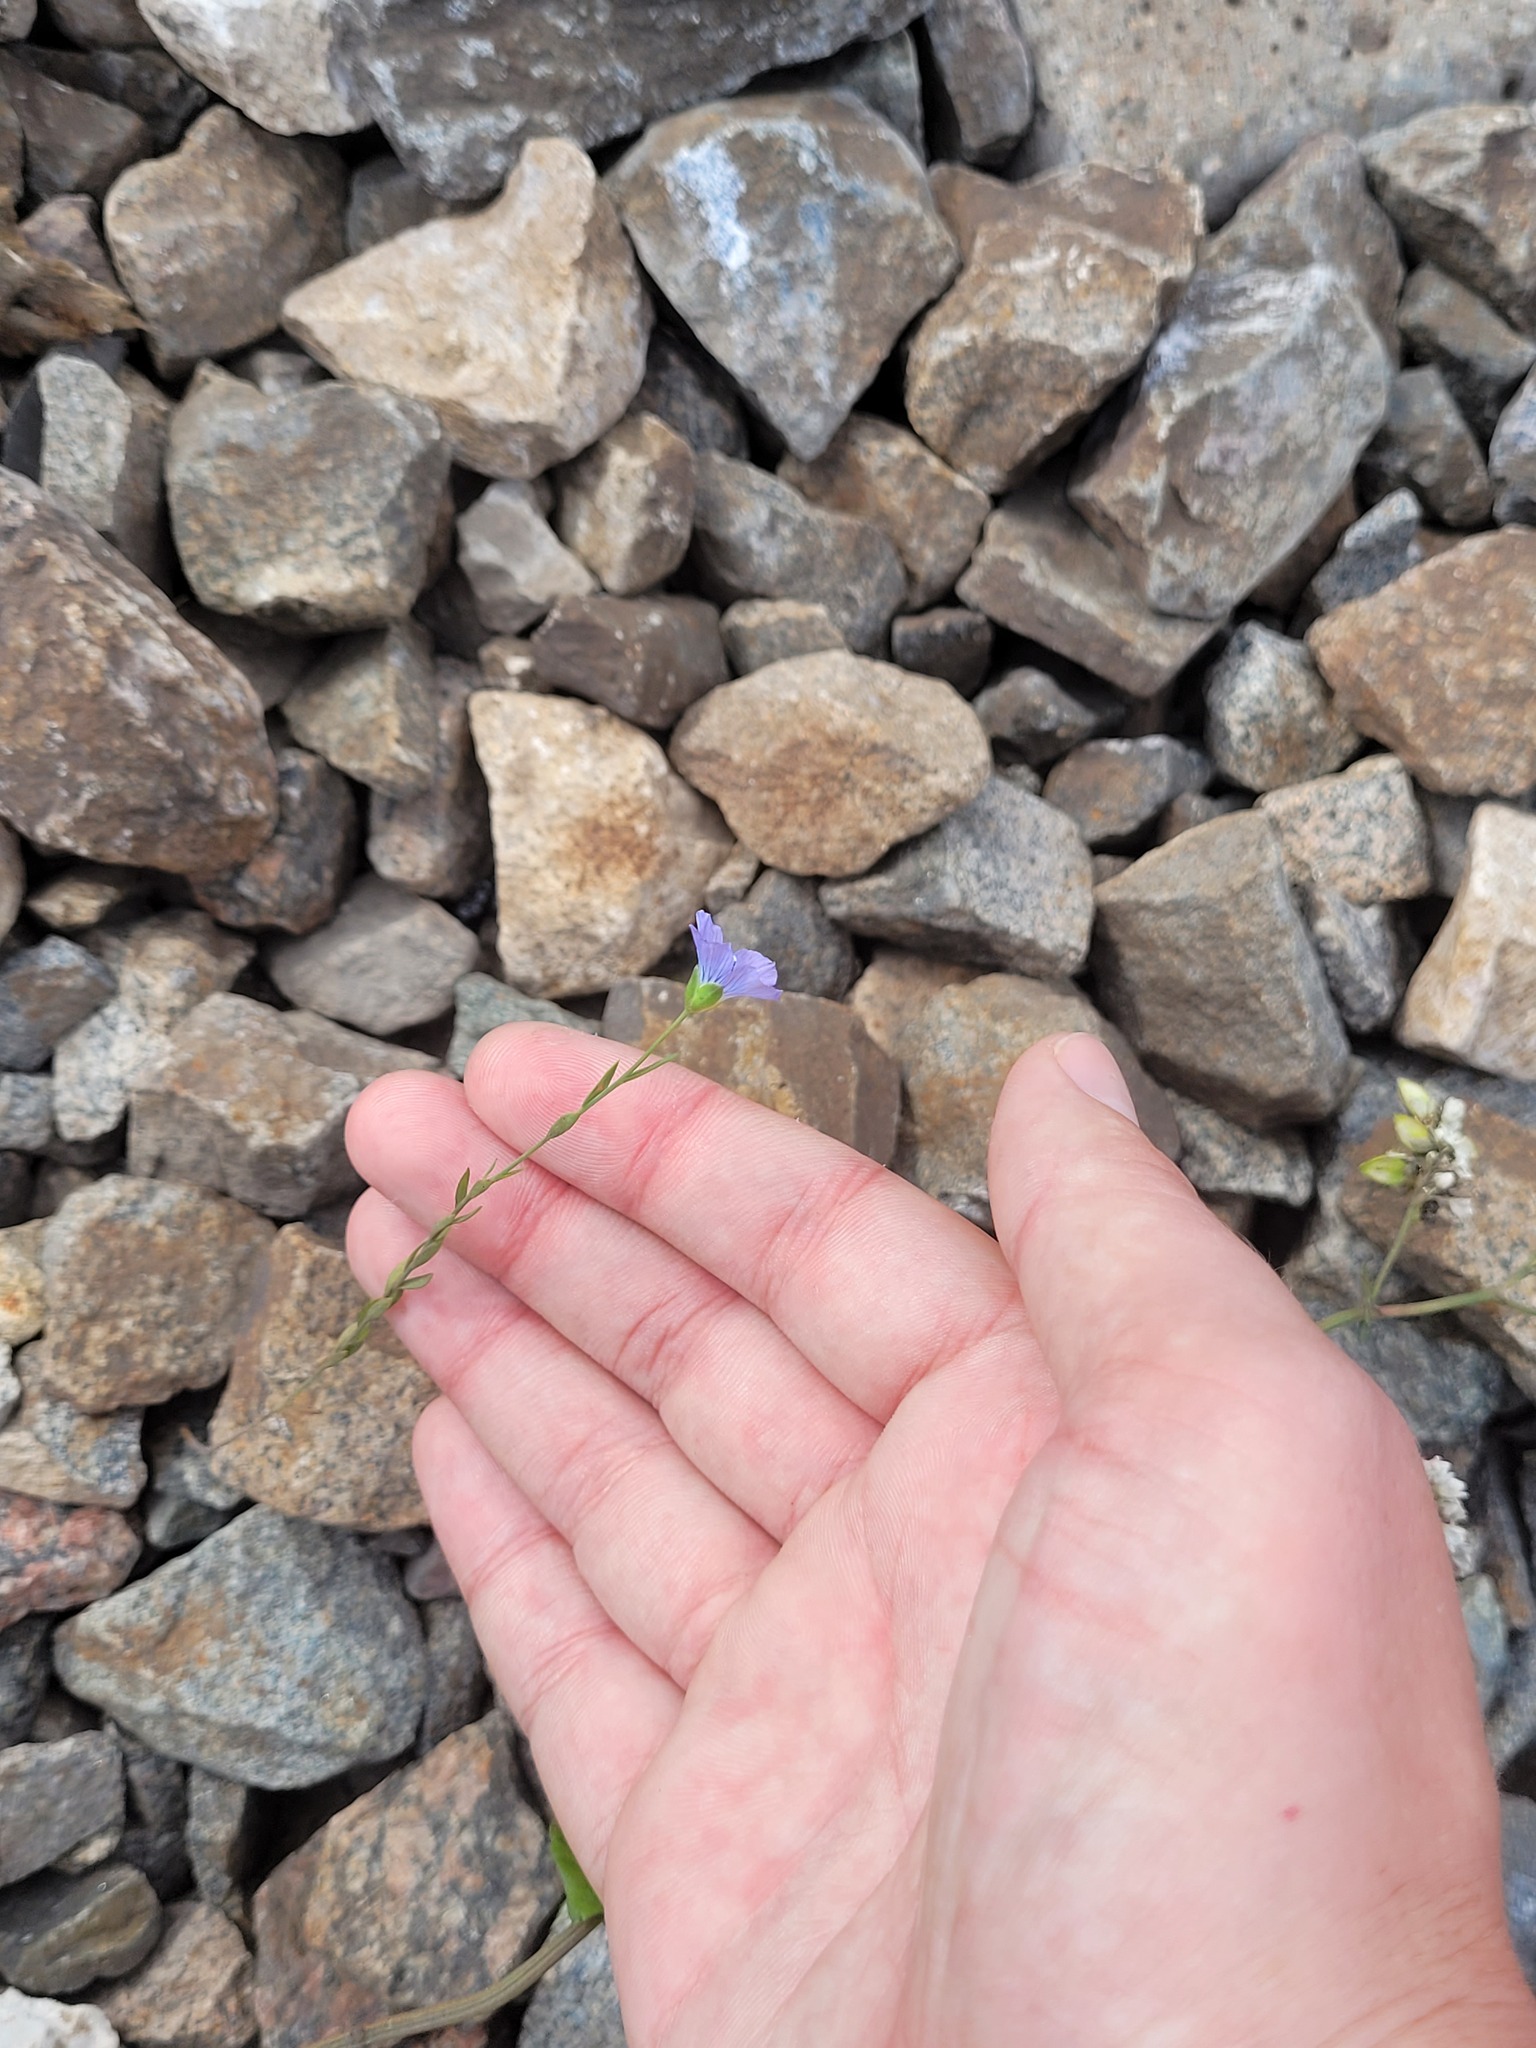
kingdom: Plantae
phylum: Tracheophyta
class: Magnoliopsida
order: Malpighiales
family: Linaceae
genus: Linum
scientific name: Linum usitatissimum
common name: Flax
